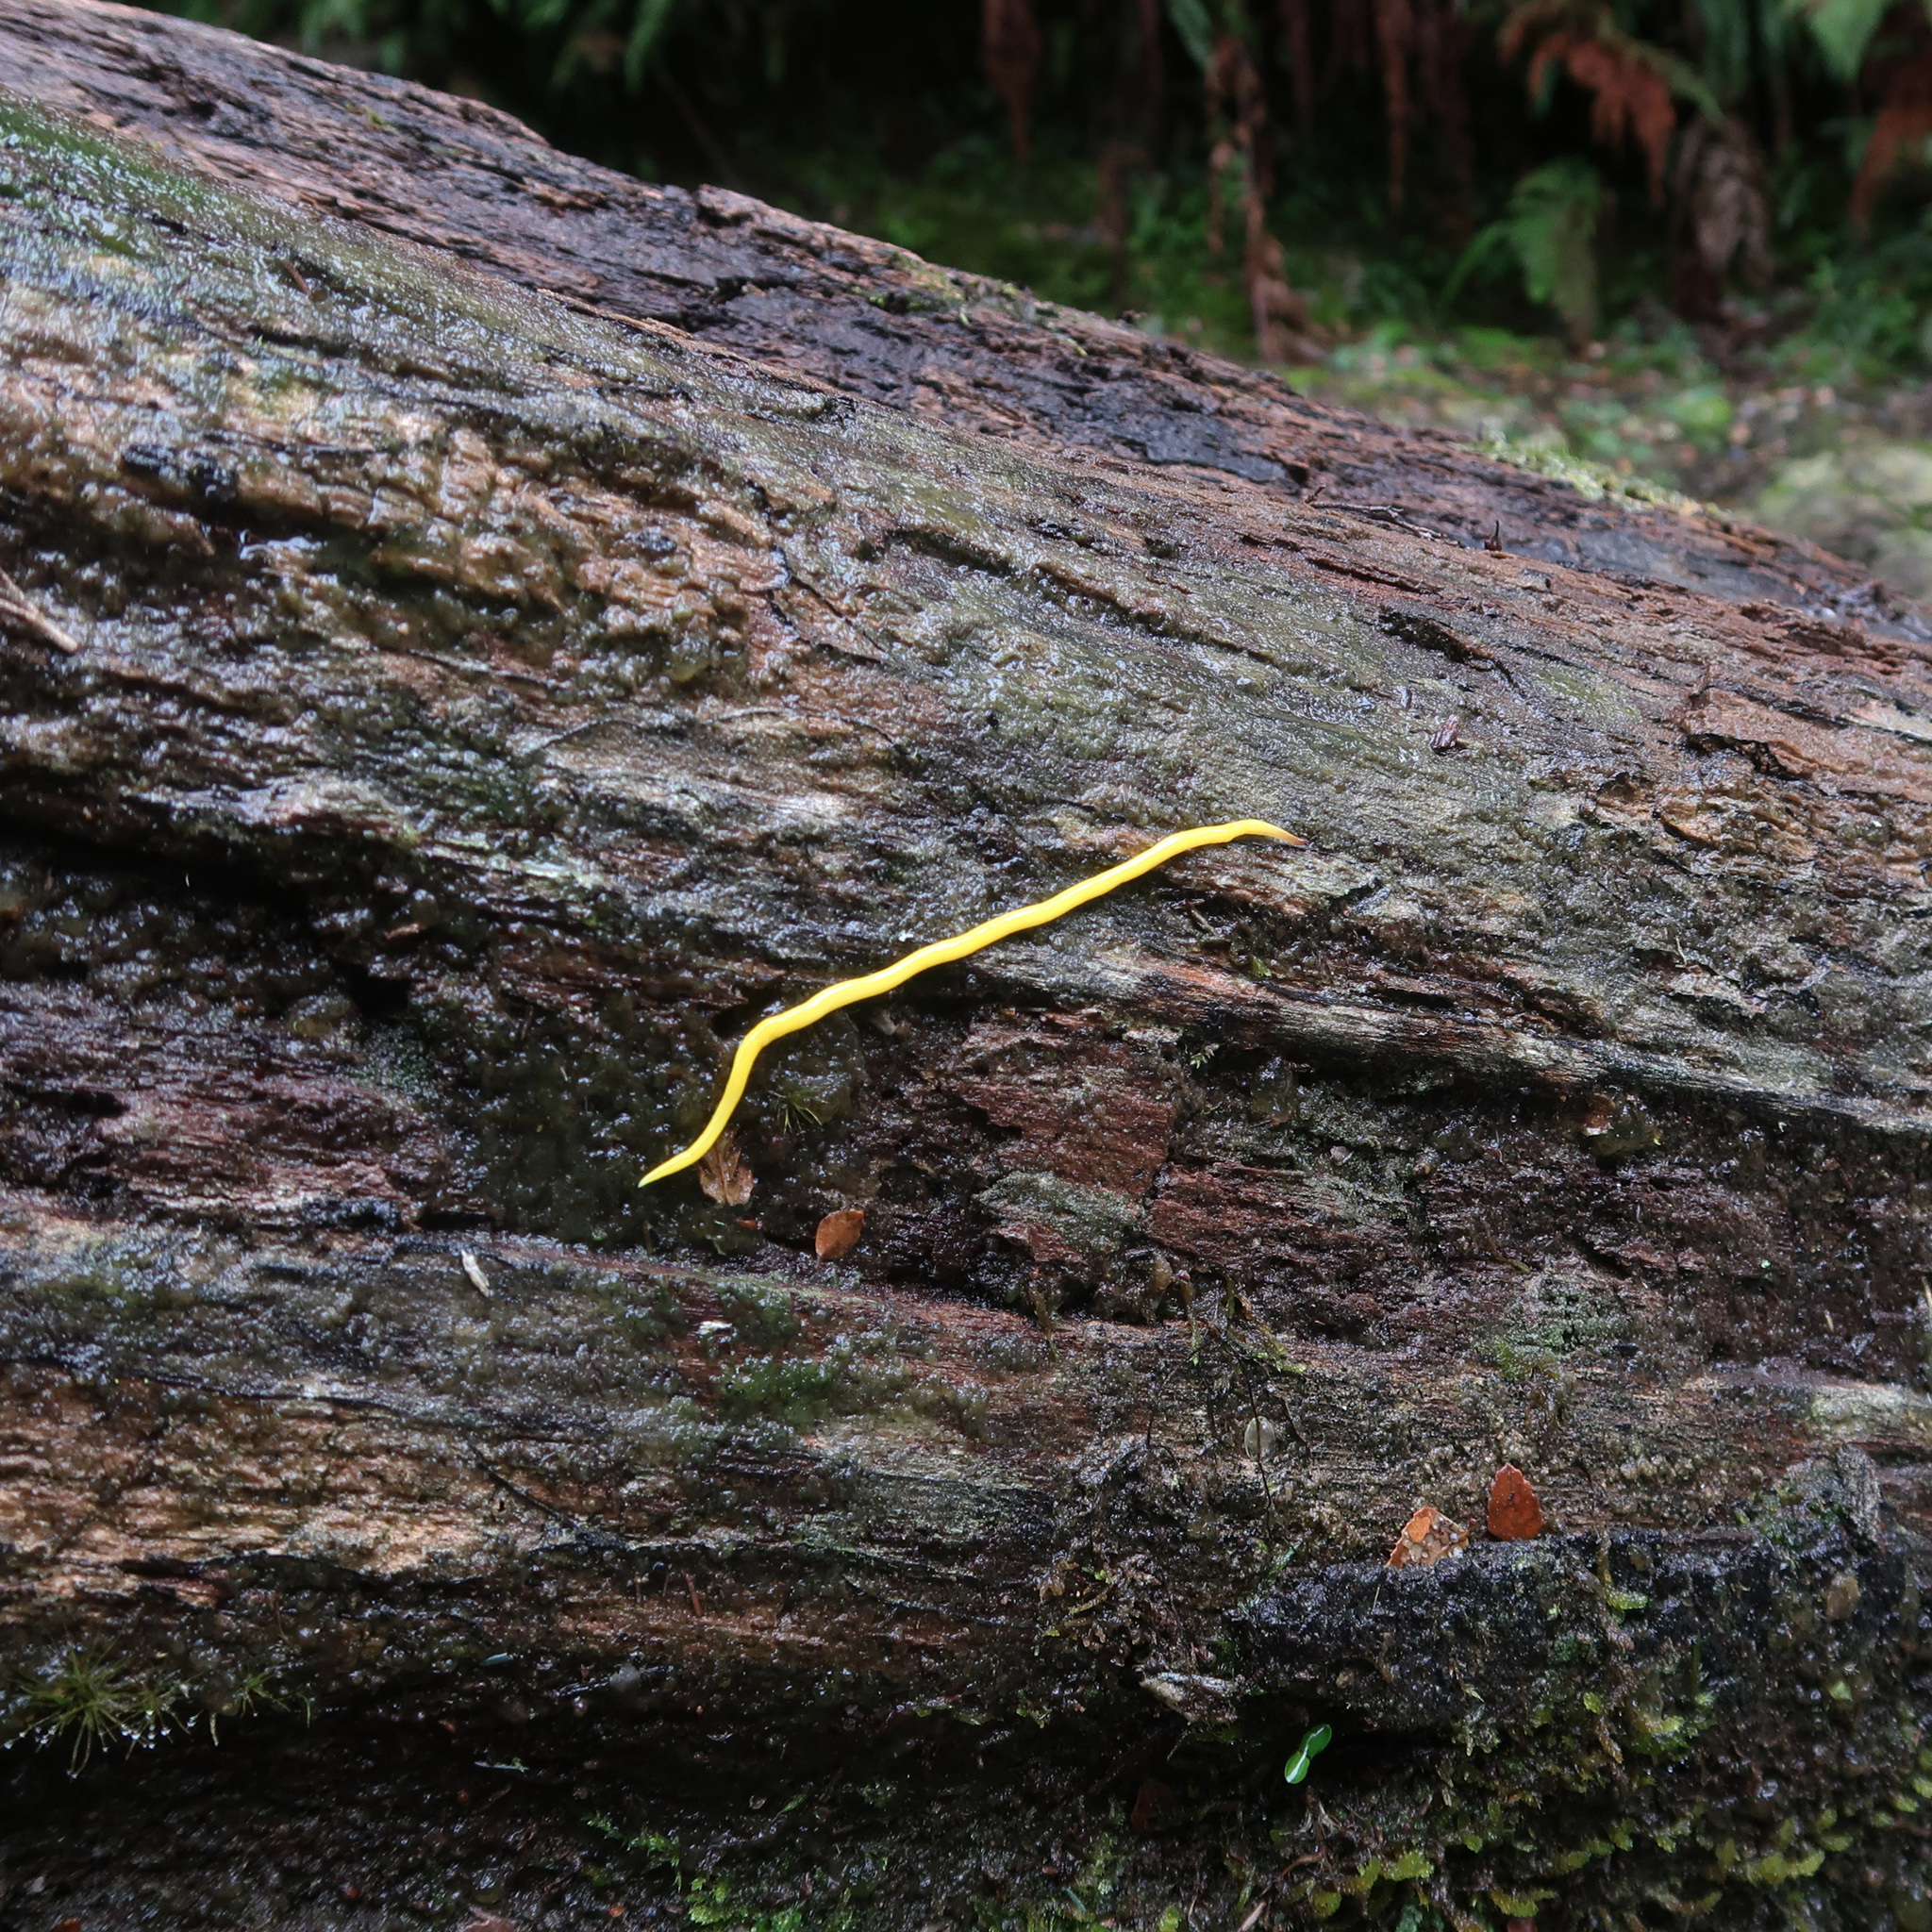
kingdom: Animalia
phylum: Platyhelminthes
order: Tricladida
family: Geoplanidae
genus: Fletchamia
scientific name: Fletchamia sugdeni
